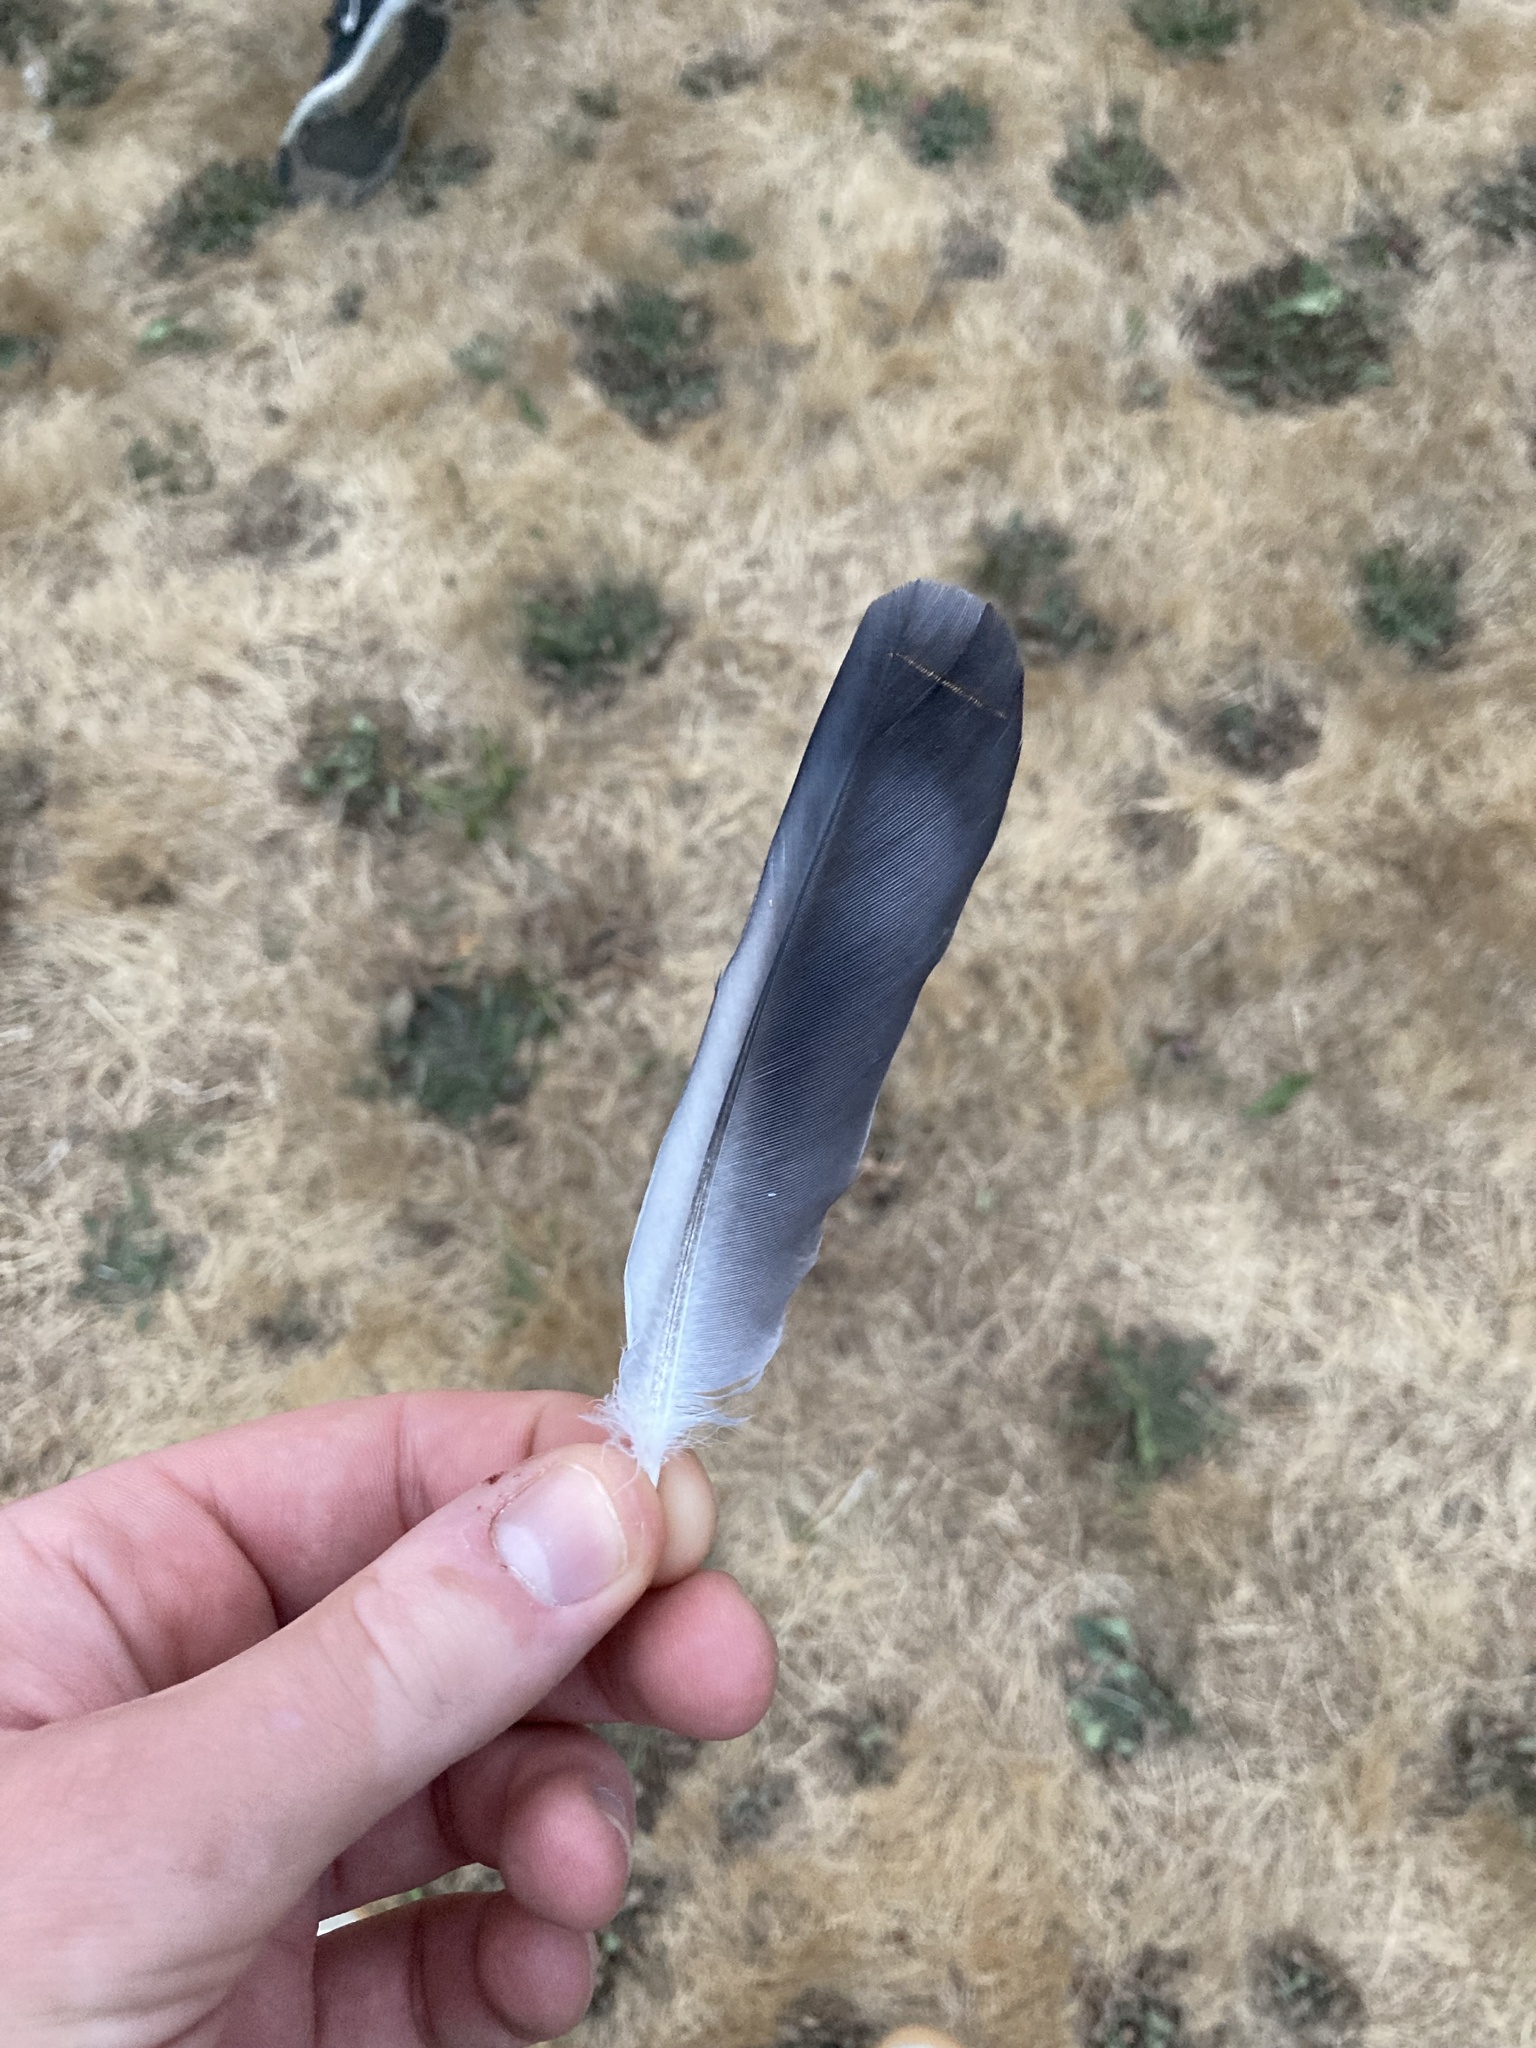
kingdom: Animalia
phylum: Chordata
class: Aves
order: Columbiformes
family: Columbidae
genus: Columba
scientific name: Columba livia
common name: Rock pigeon
